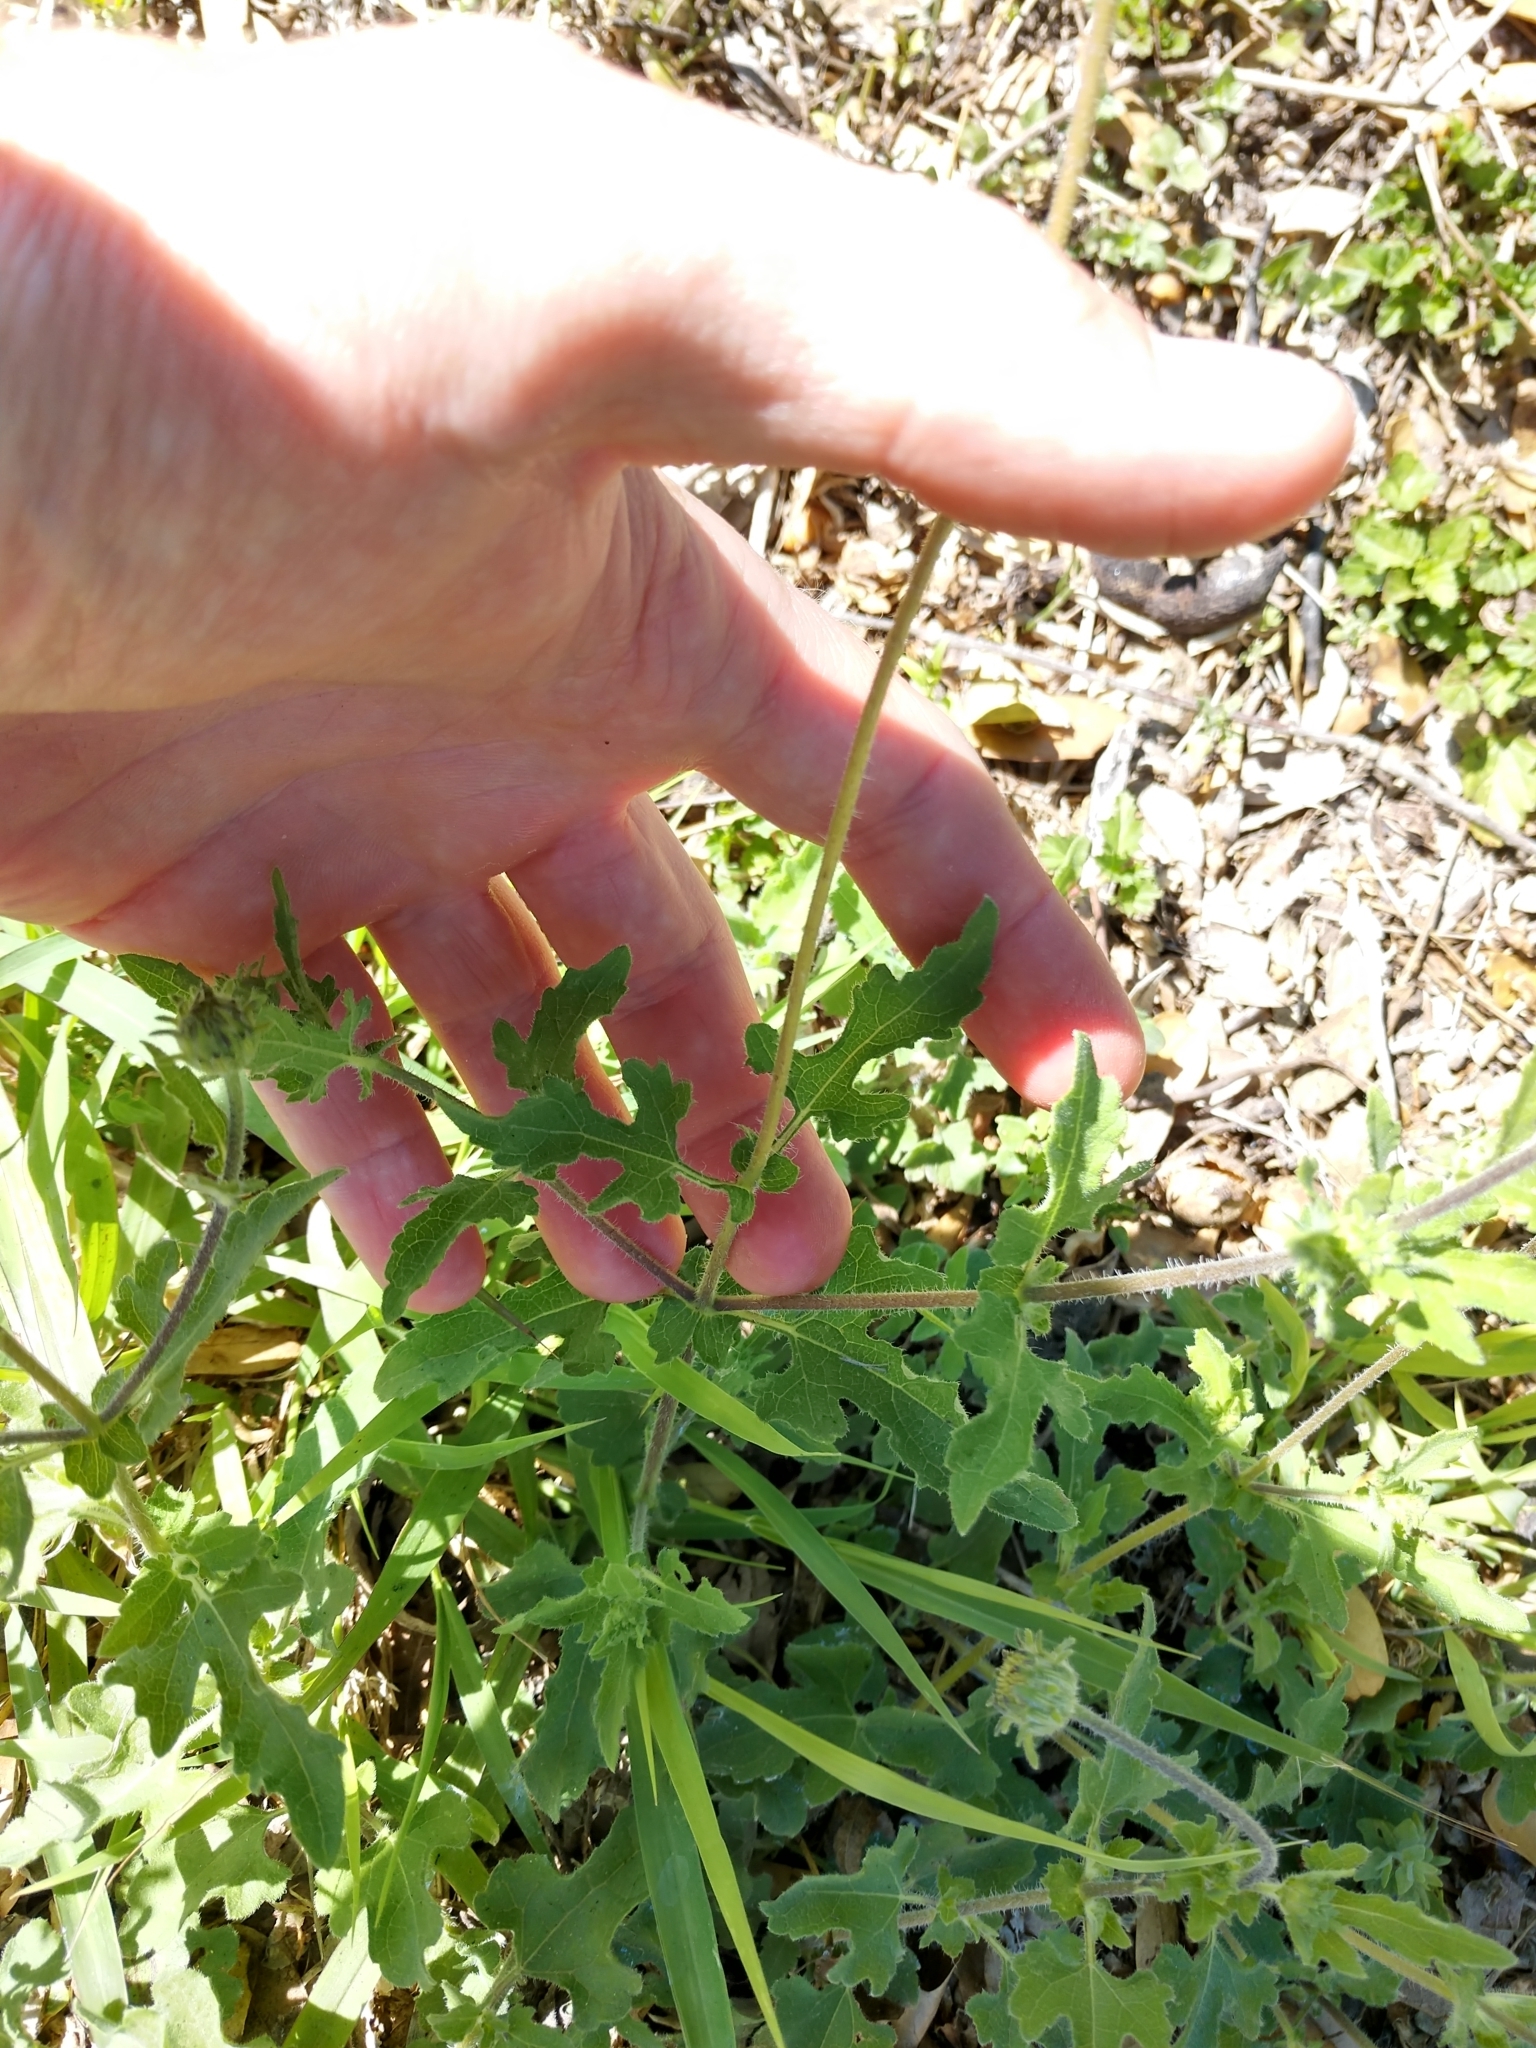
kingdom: Plantae
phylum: Tracheophyta
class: Magnoliopsida
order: Asterales
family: Asteraceae
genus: Simsia
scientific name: Simsia calva
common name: Awnless bush-sunflower
